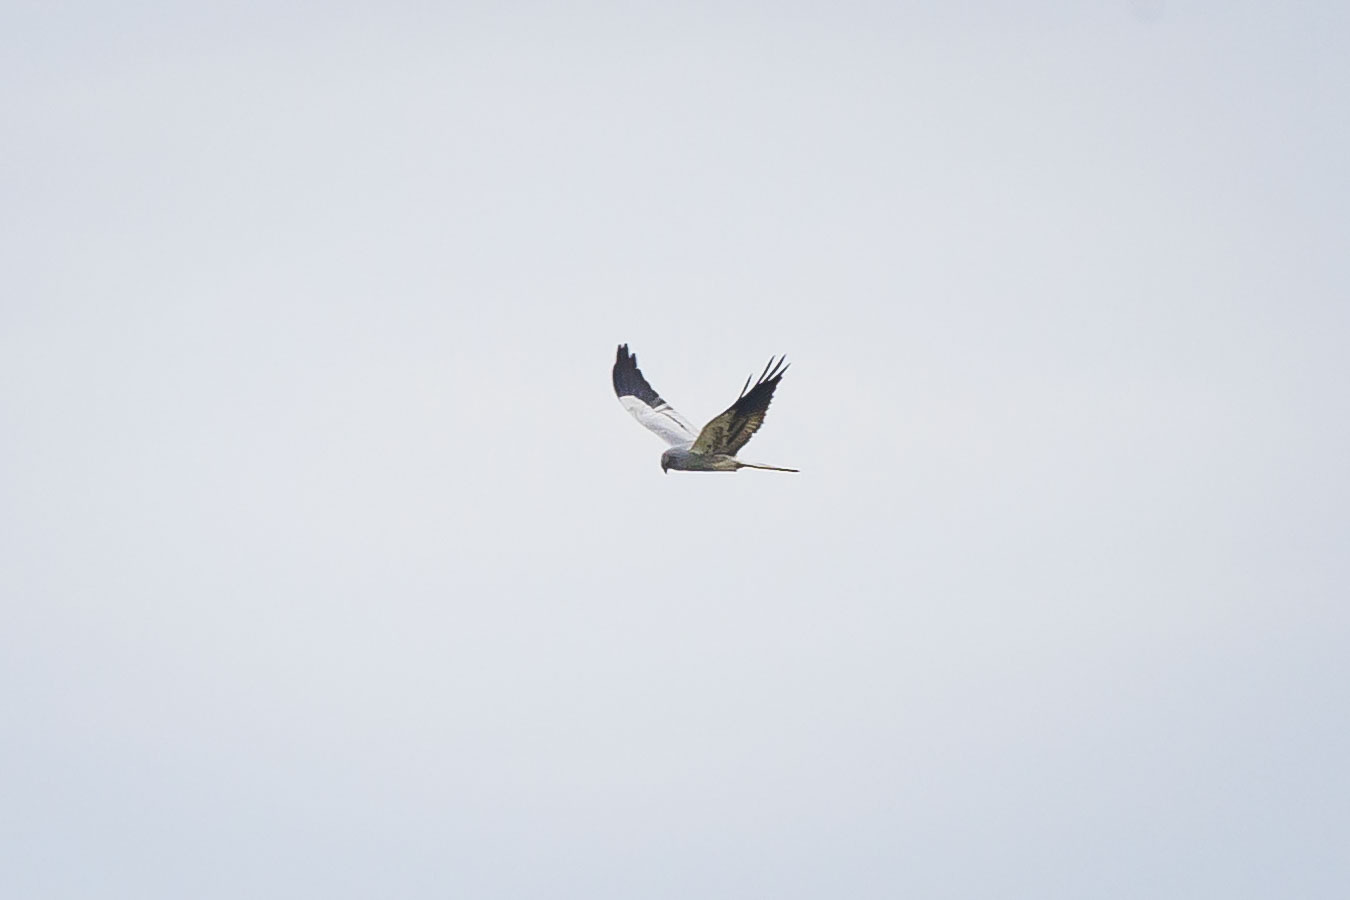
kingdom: Animalia
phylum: Chordata
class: Aves
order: Accipitriformes
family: Accipitridae
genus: Circus
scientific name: Circus pygargus
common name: Montagu's harrier
